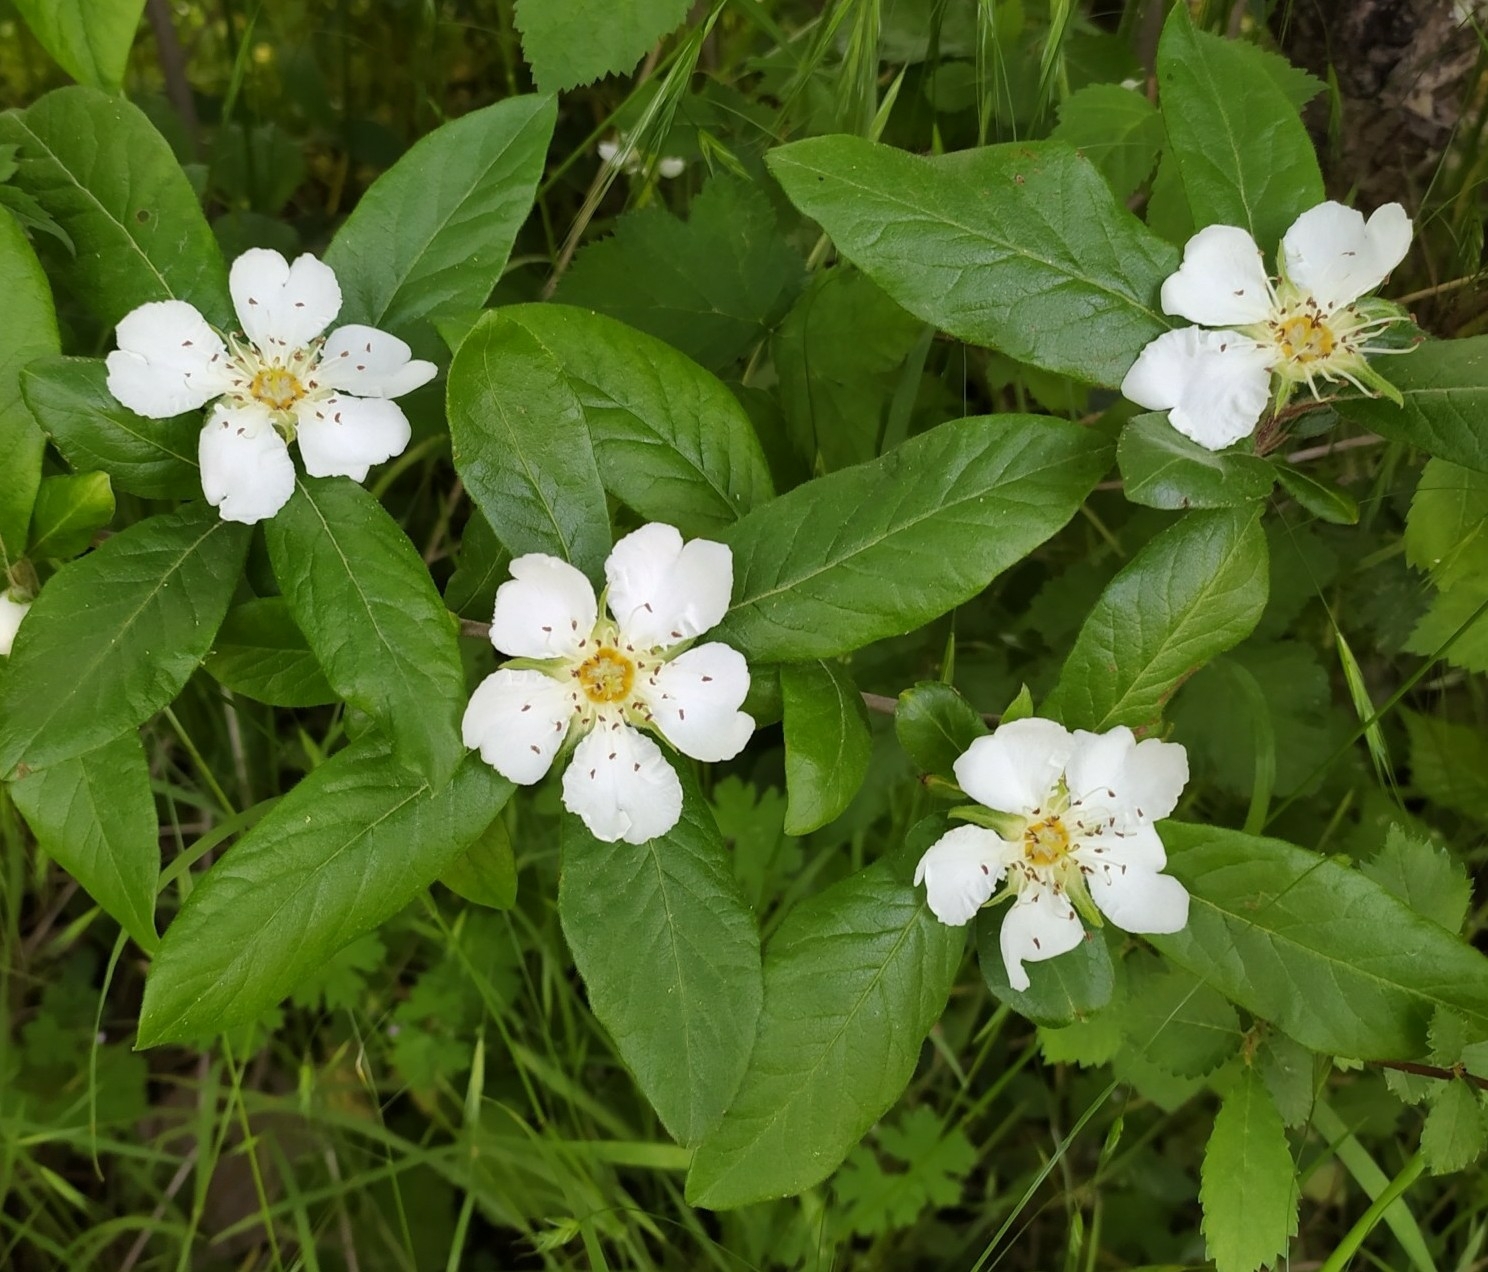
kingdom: Plantae
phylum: Tracheophyta
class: Magnoliopsida
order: Rosales
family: Rosaceae
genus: Mespilus
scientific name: Mespilus germanica
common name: Medlar
